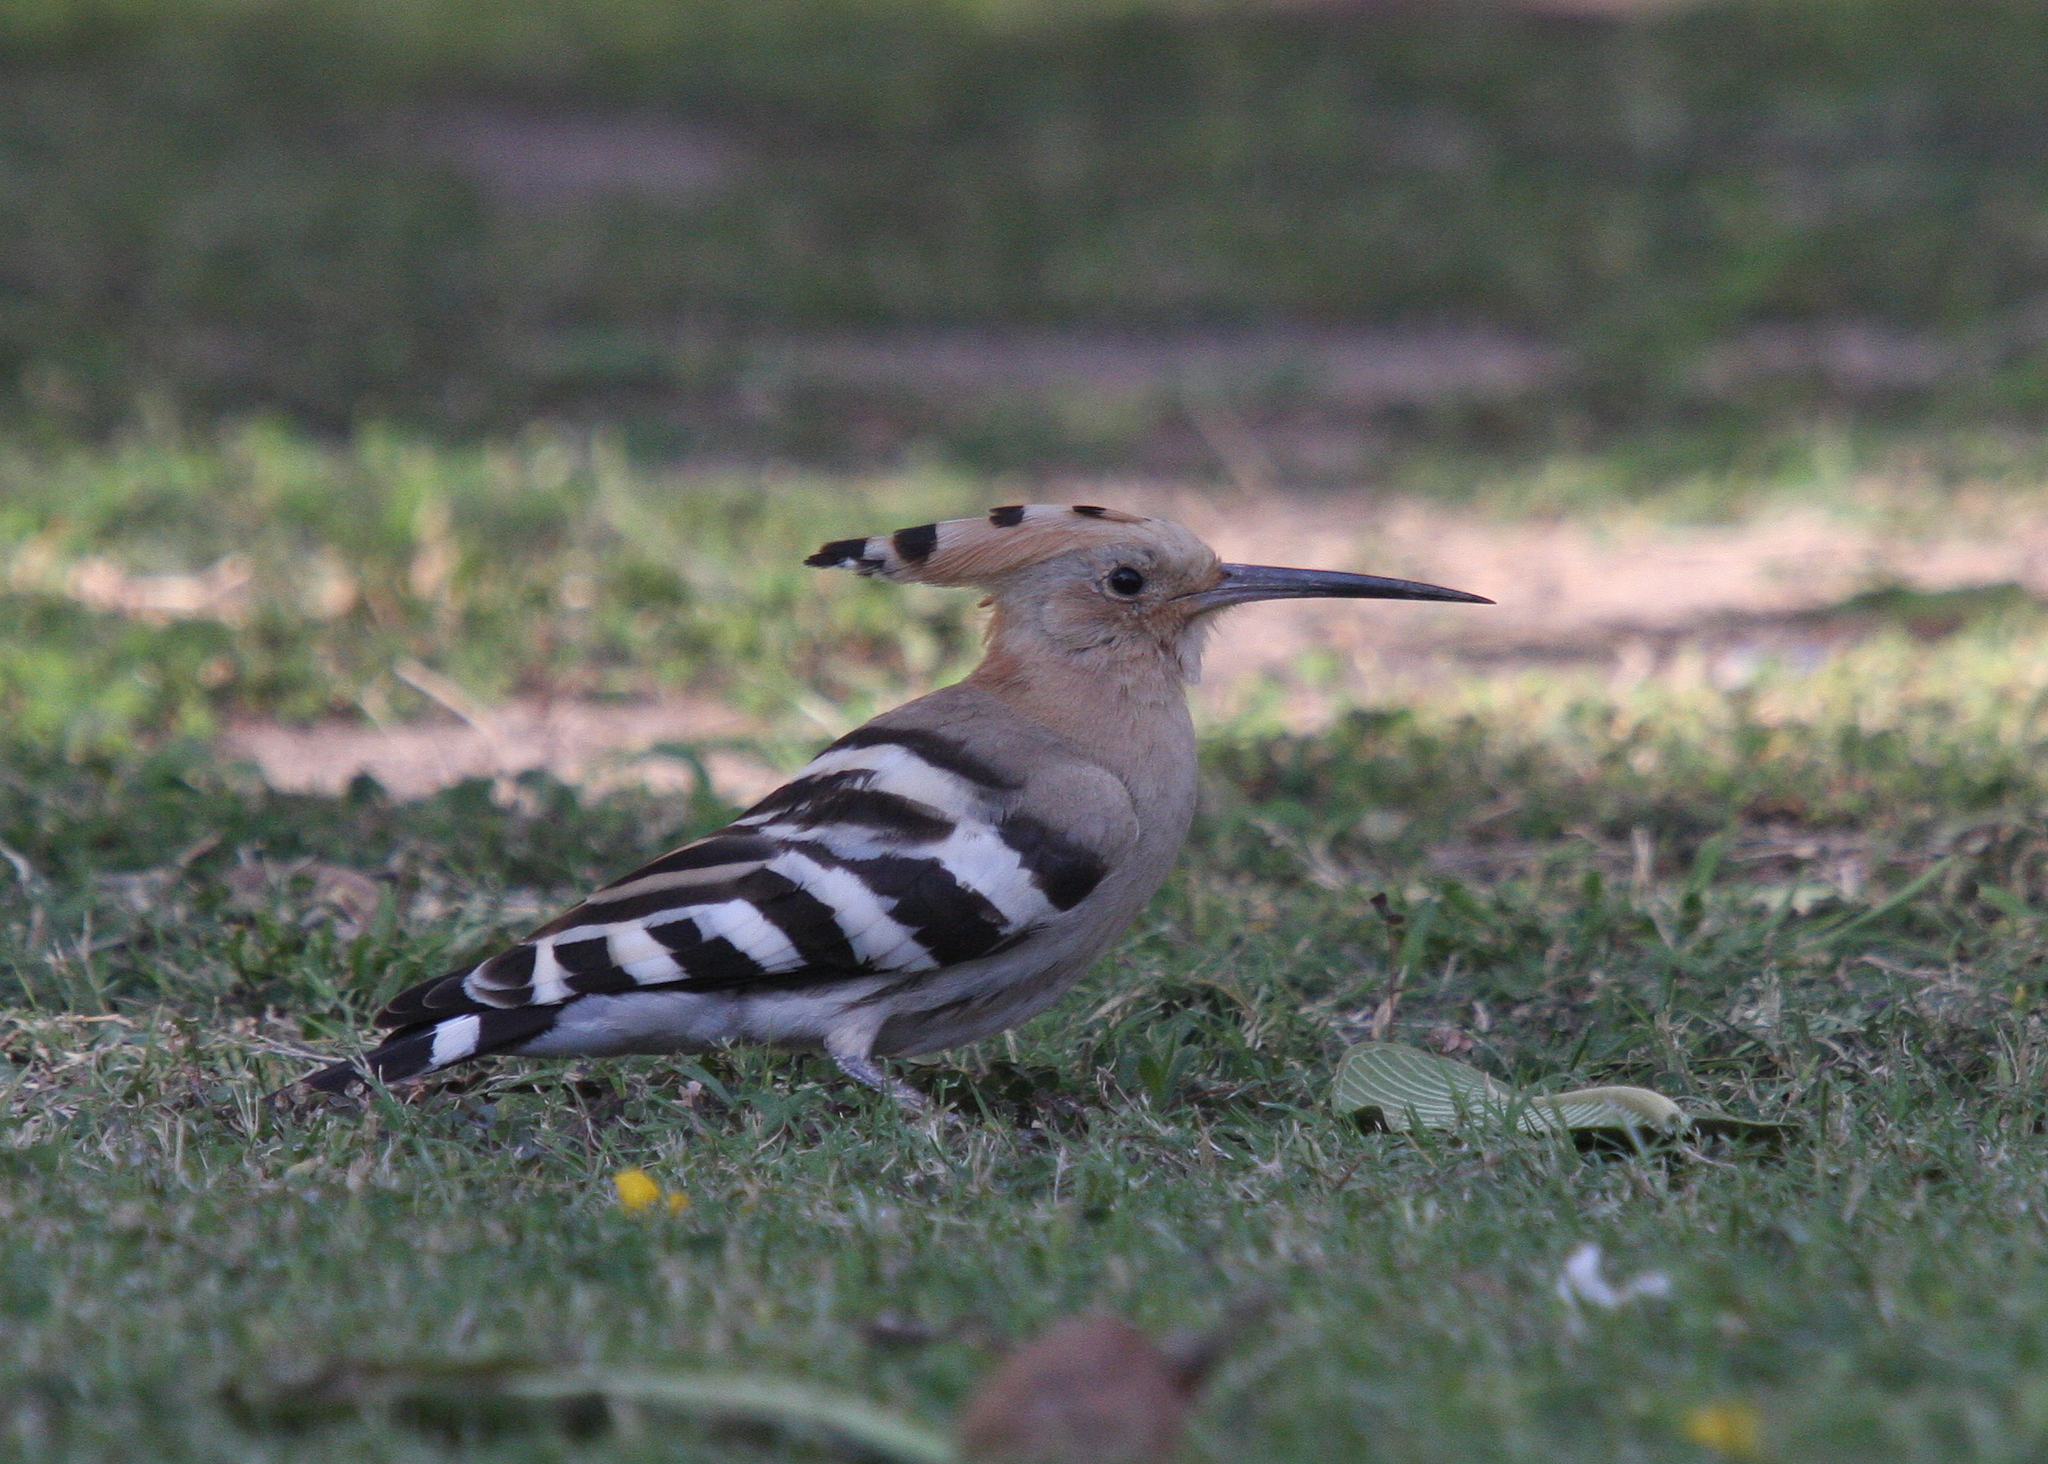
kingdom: Animalia
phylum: Chordata
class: Aves
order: Bucerotiformes
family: Upupidae
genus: Upupa
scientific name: Upupa epops
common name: Eurasian hoopoe
